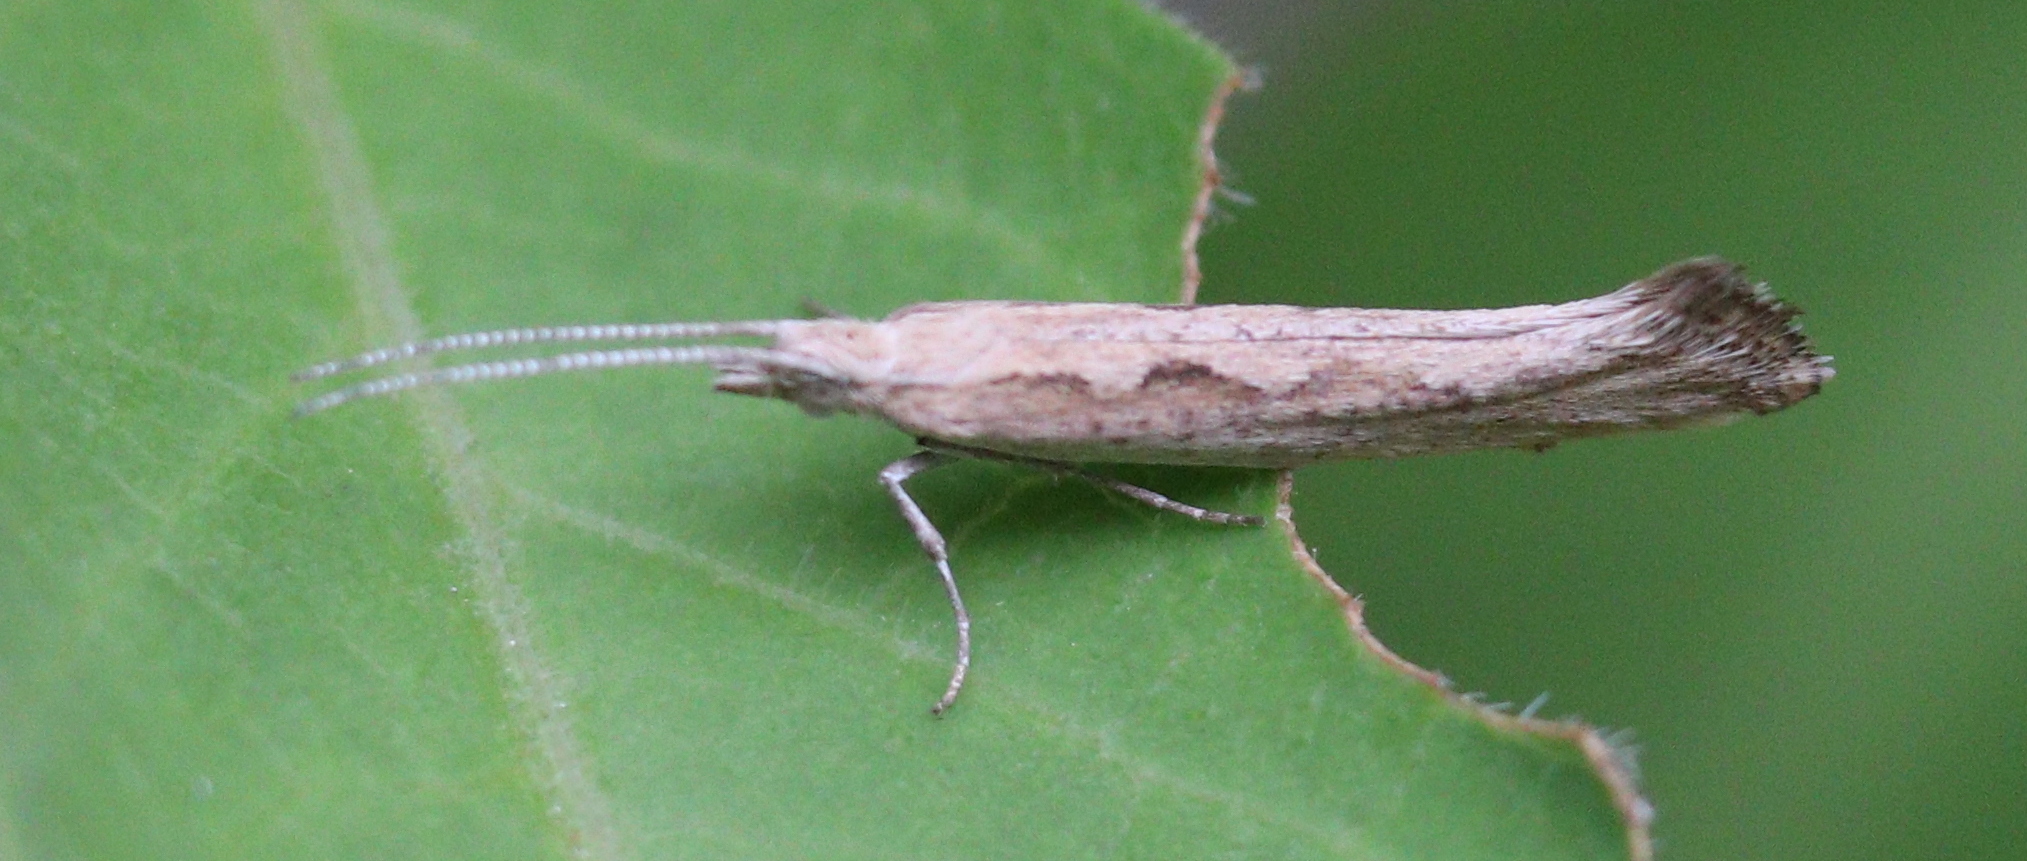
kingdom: Animalia
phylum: Arthropoda
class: Insecta
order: Lepidoptera
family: Plutellidae
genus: Plutella
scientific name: Plutella xylostella
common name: Diamond-back moth
